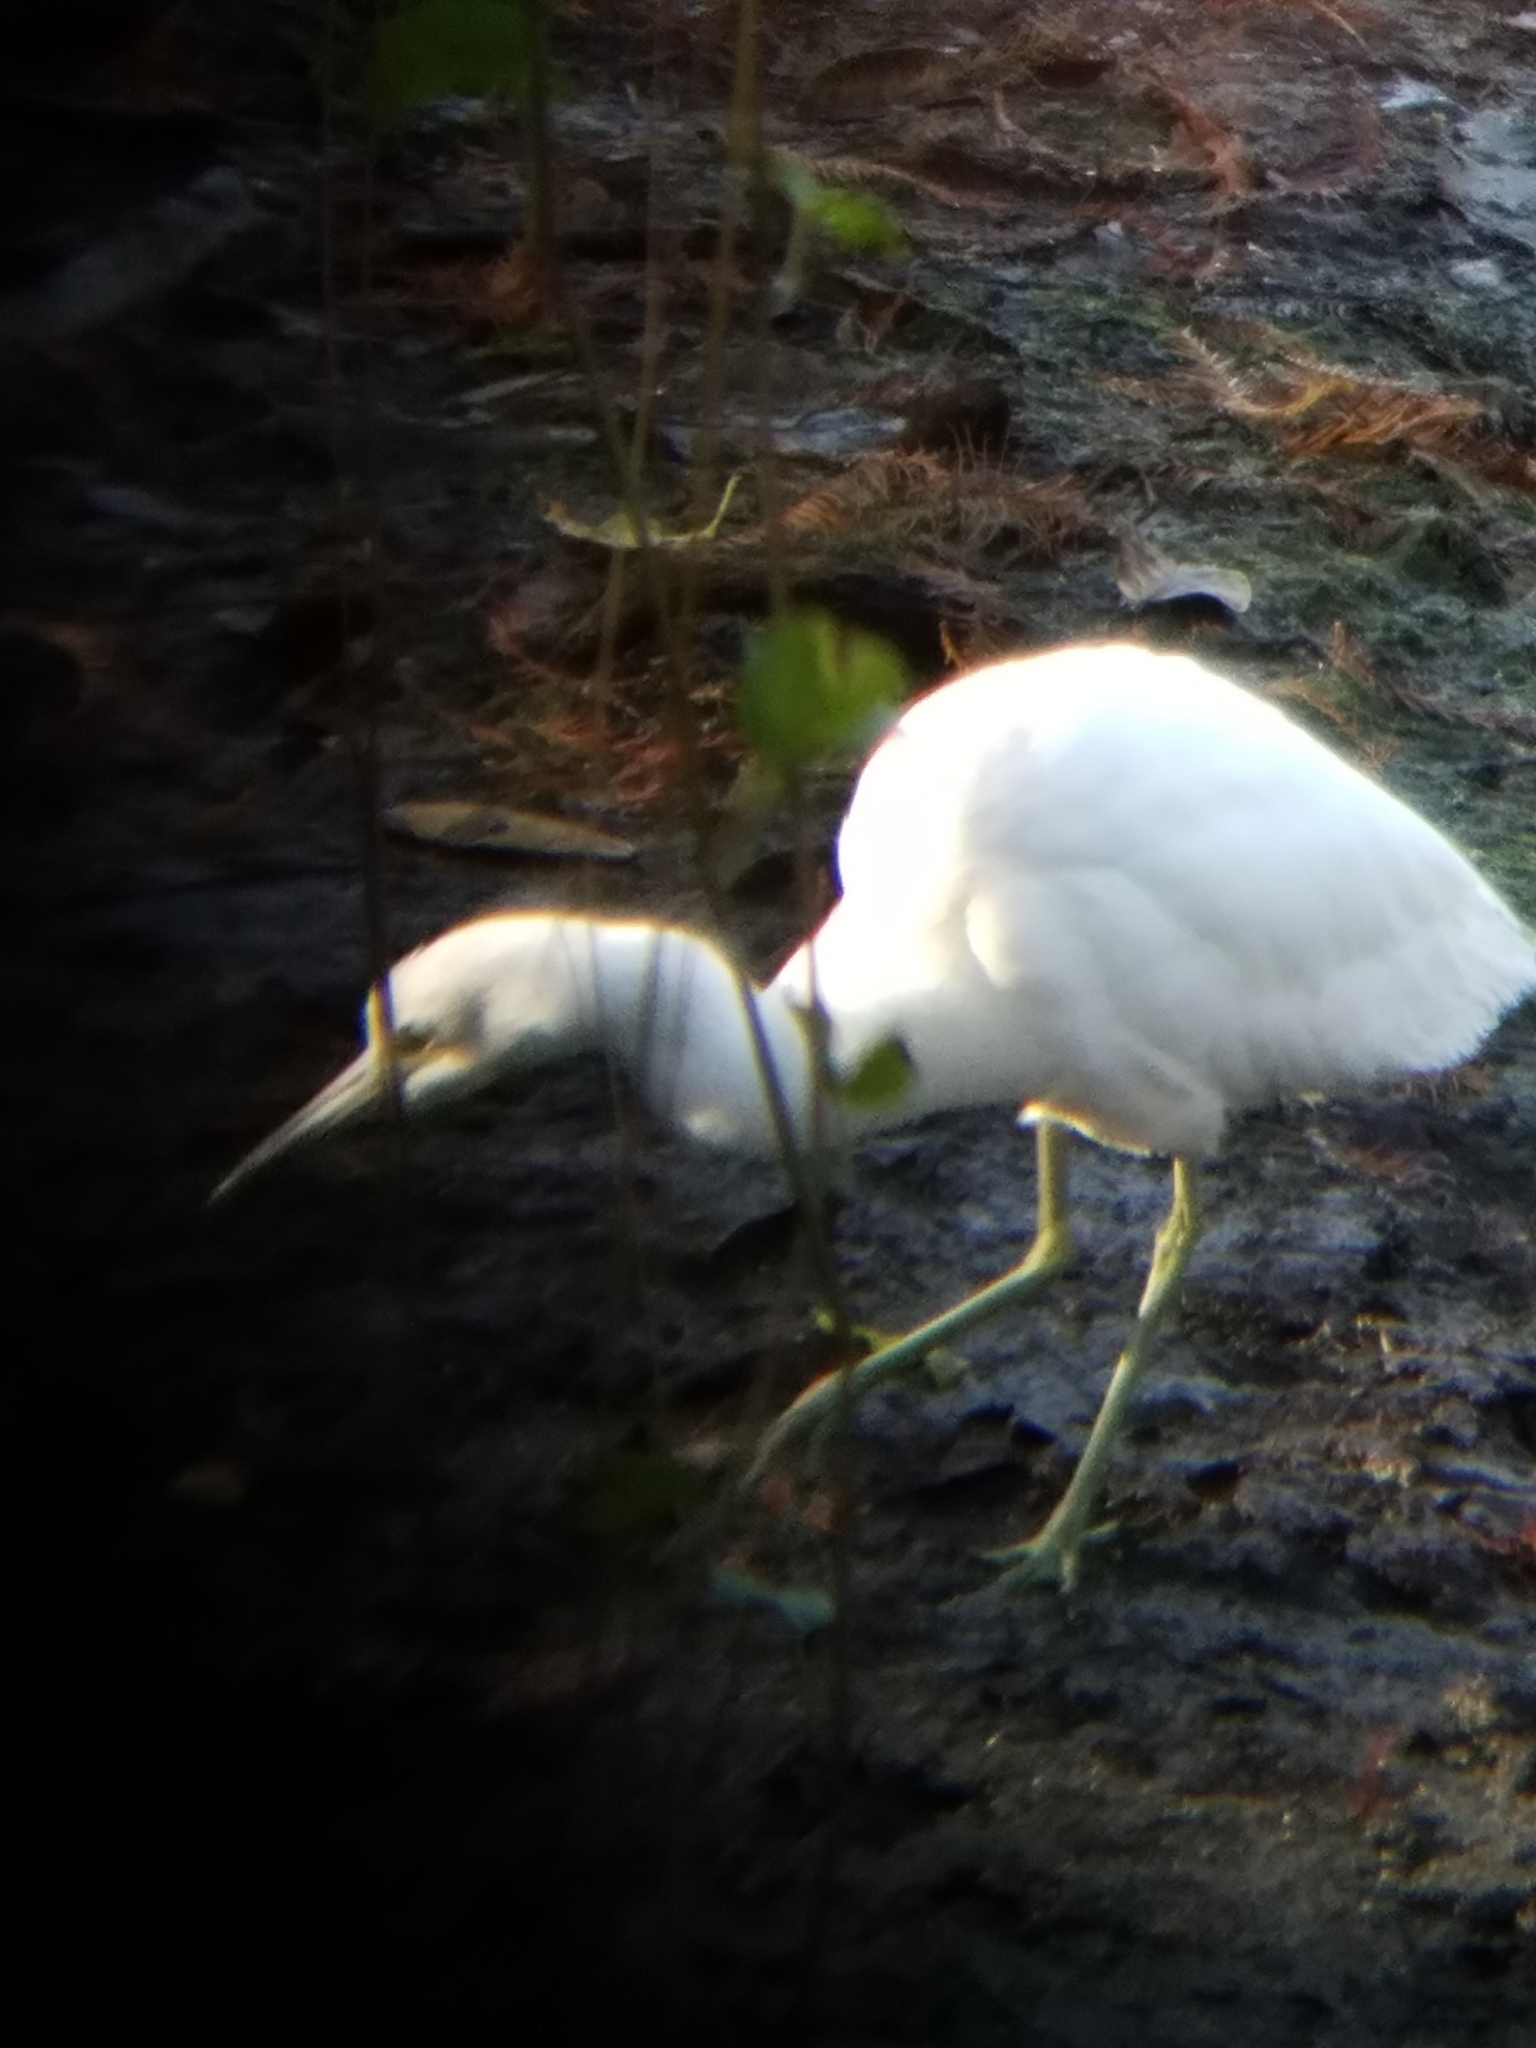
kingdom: Animalia
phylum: Chordata
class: Aves
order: Pelecaniformes
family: Ardeidae
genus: Egretta
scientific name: Egretta caerulea
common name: Little blue heron
